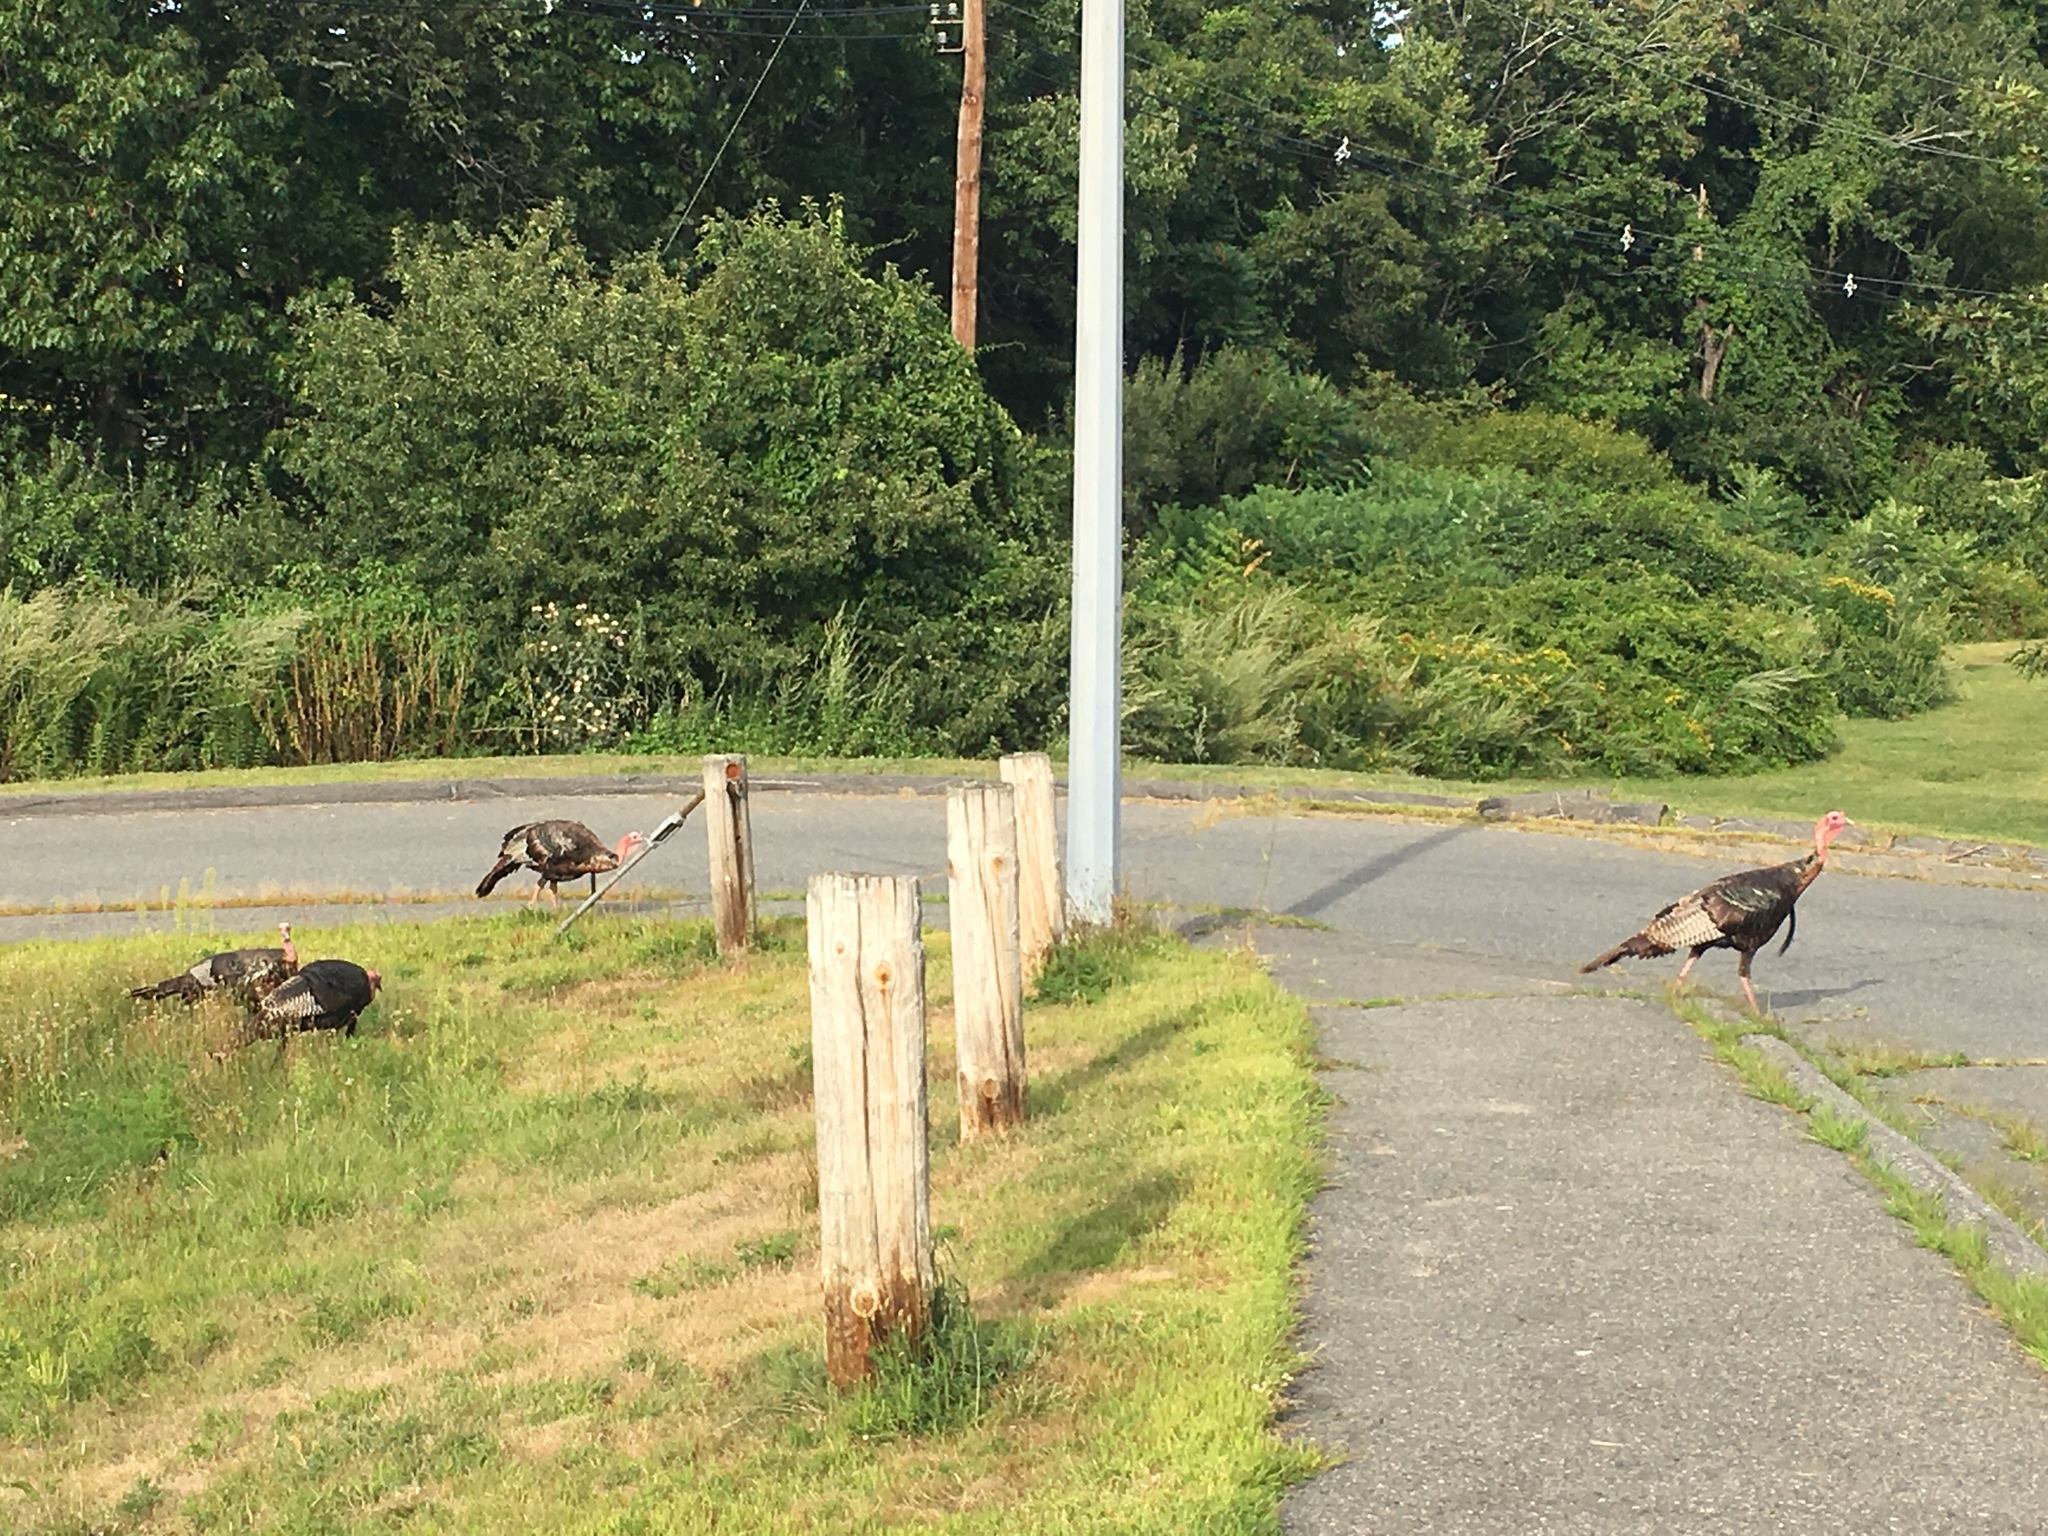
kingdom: Animalia
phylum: Chordata
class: Aves
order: Galliformes
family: Phasianidae
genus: Meleagris
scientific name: Meleagris gallopavo
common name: Wild turkey
